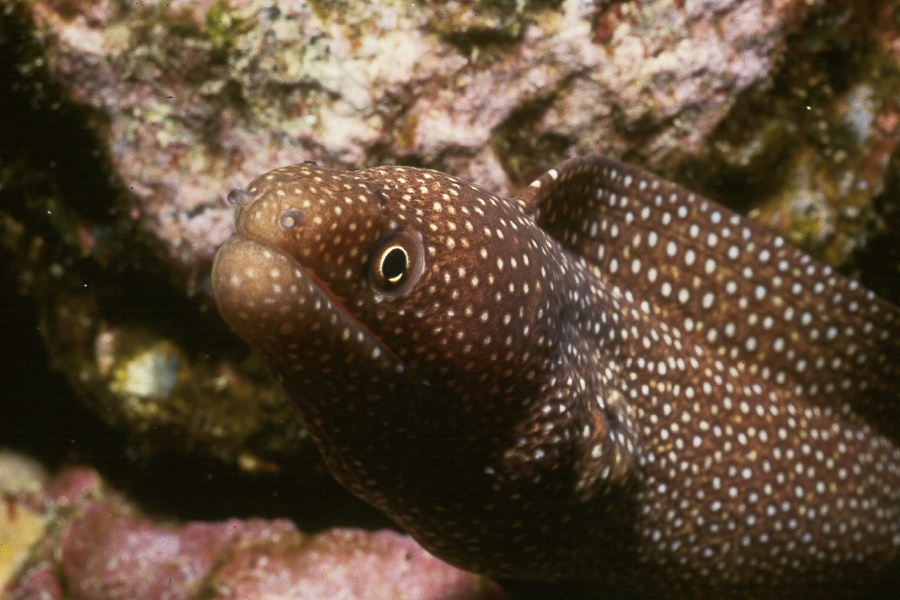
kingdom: Animalia
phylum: Chordata
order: Anguilliformes
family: Muraenidae
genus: Gymnothorax
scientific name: Gymnothorax meleagris
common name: Guineafowl moray
